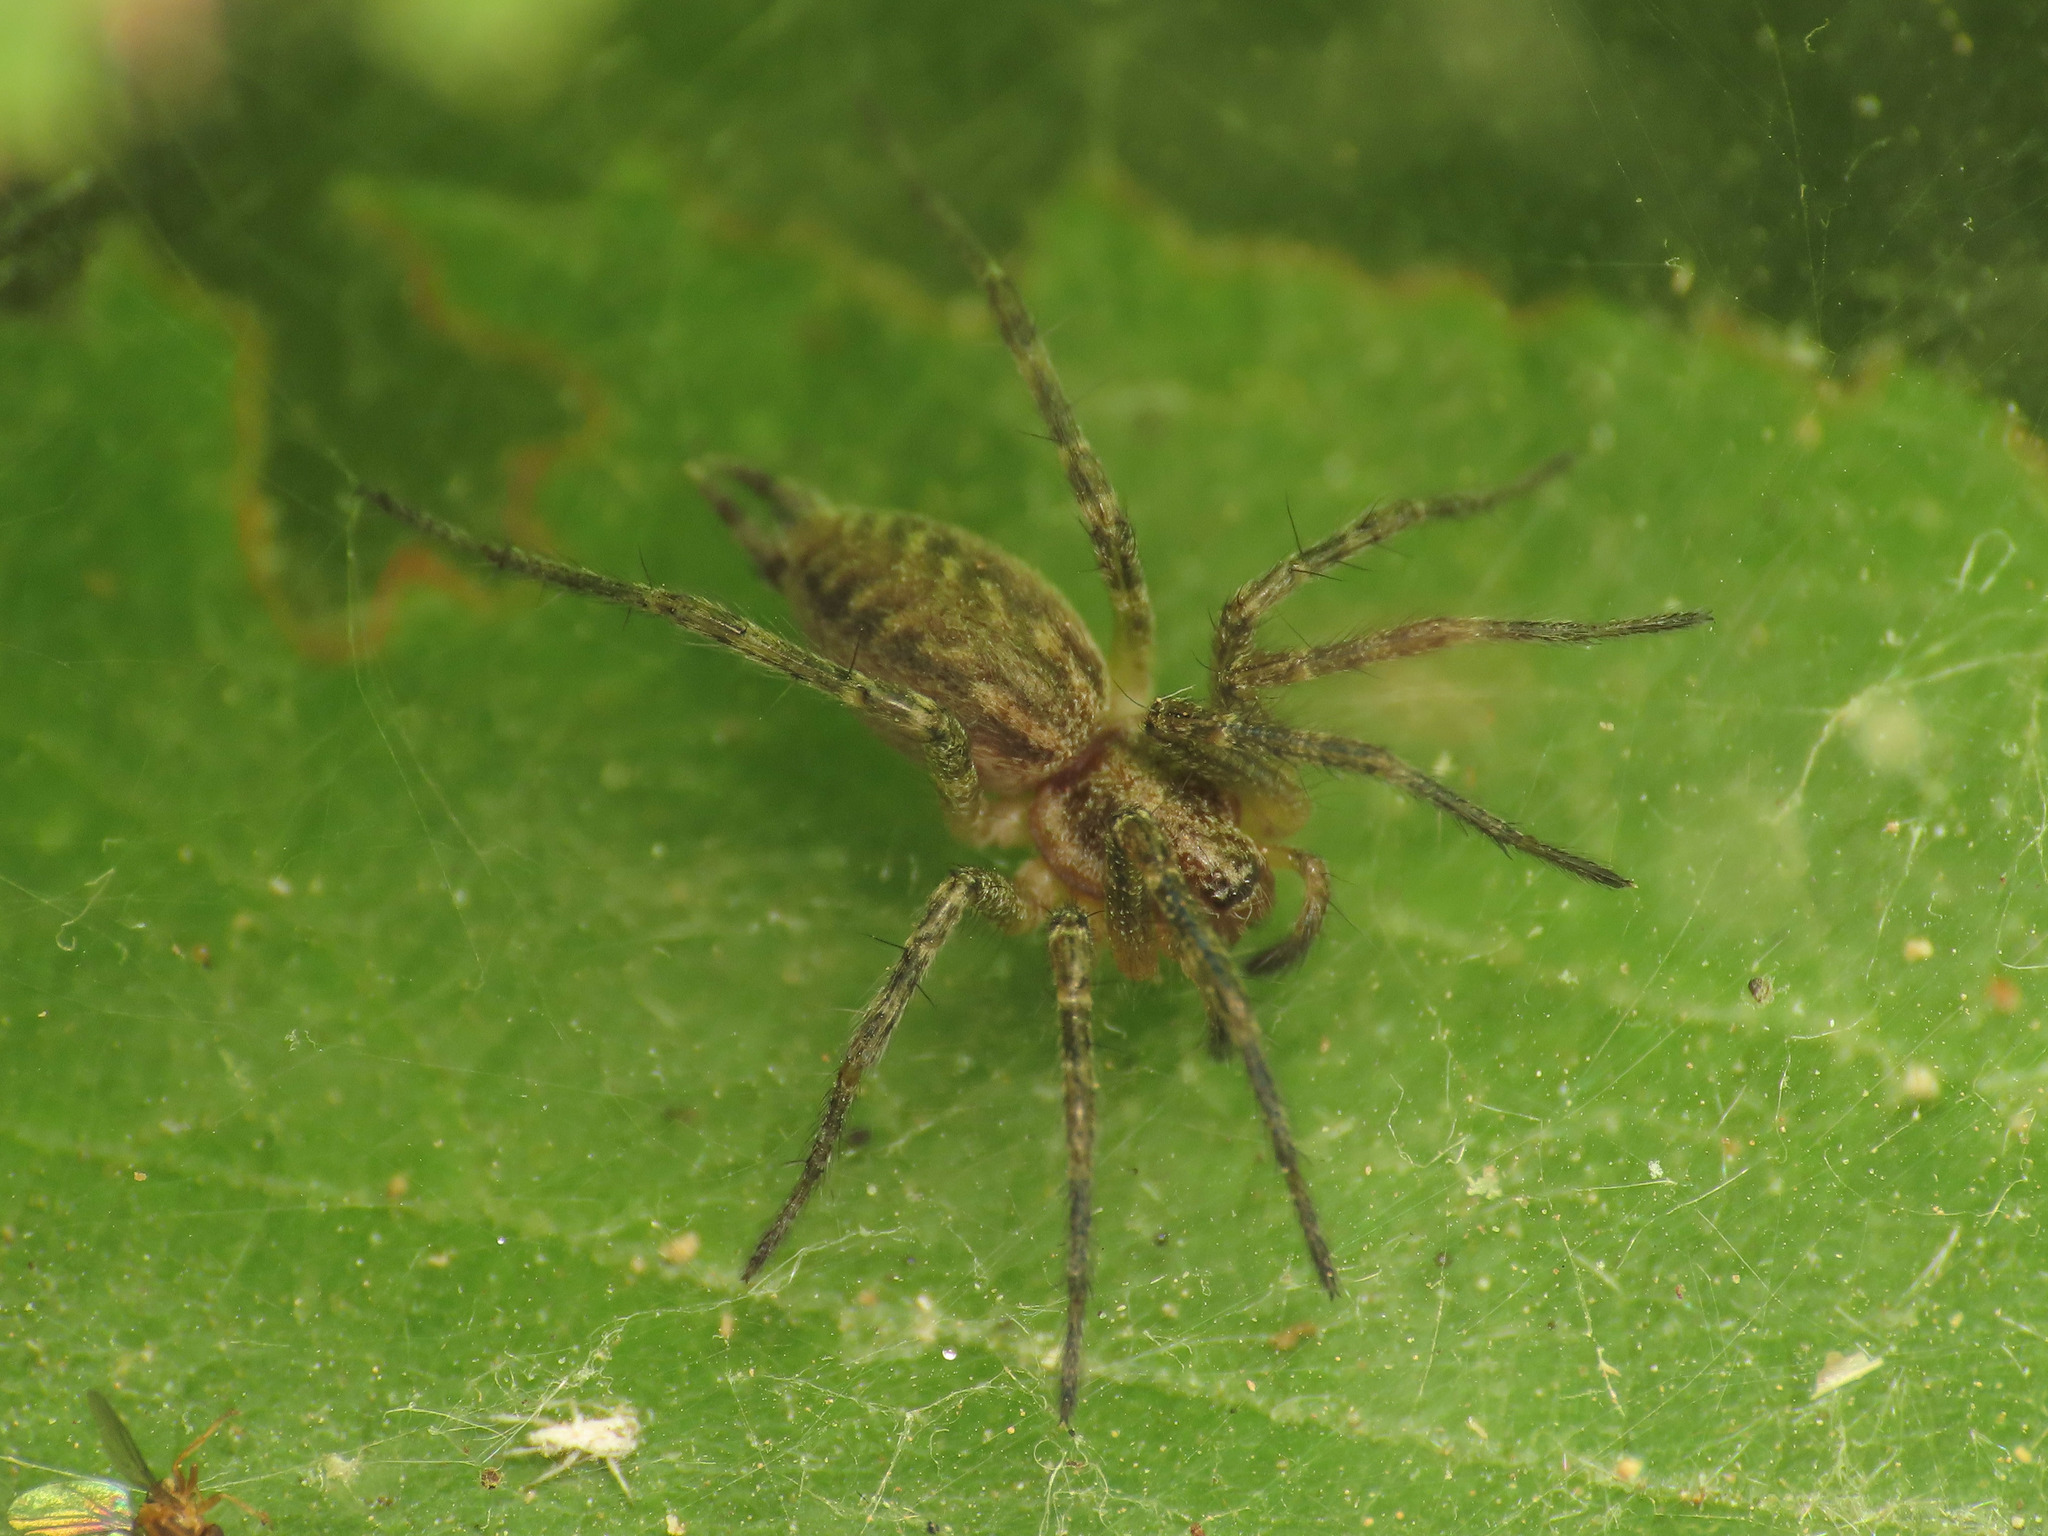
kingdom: Animalia
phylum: Arthropoda
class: Arachnida
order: Araneae
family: Agelenidae
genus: Allagelena
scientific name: Allagelena gracilens
